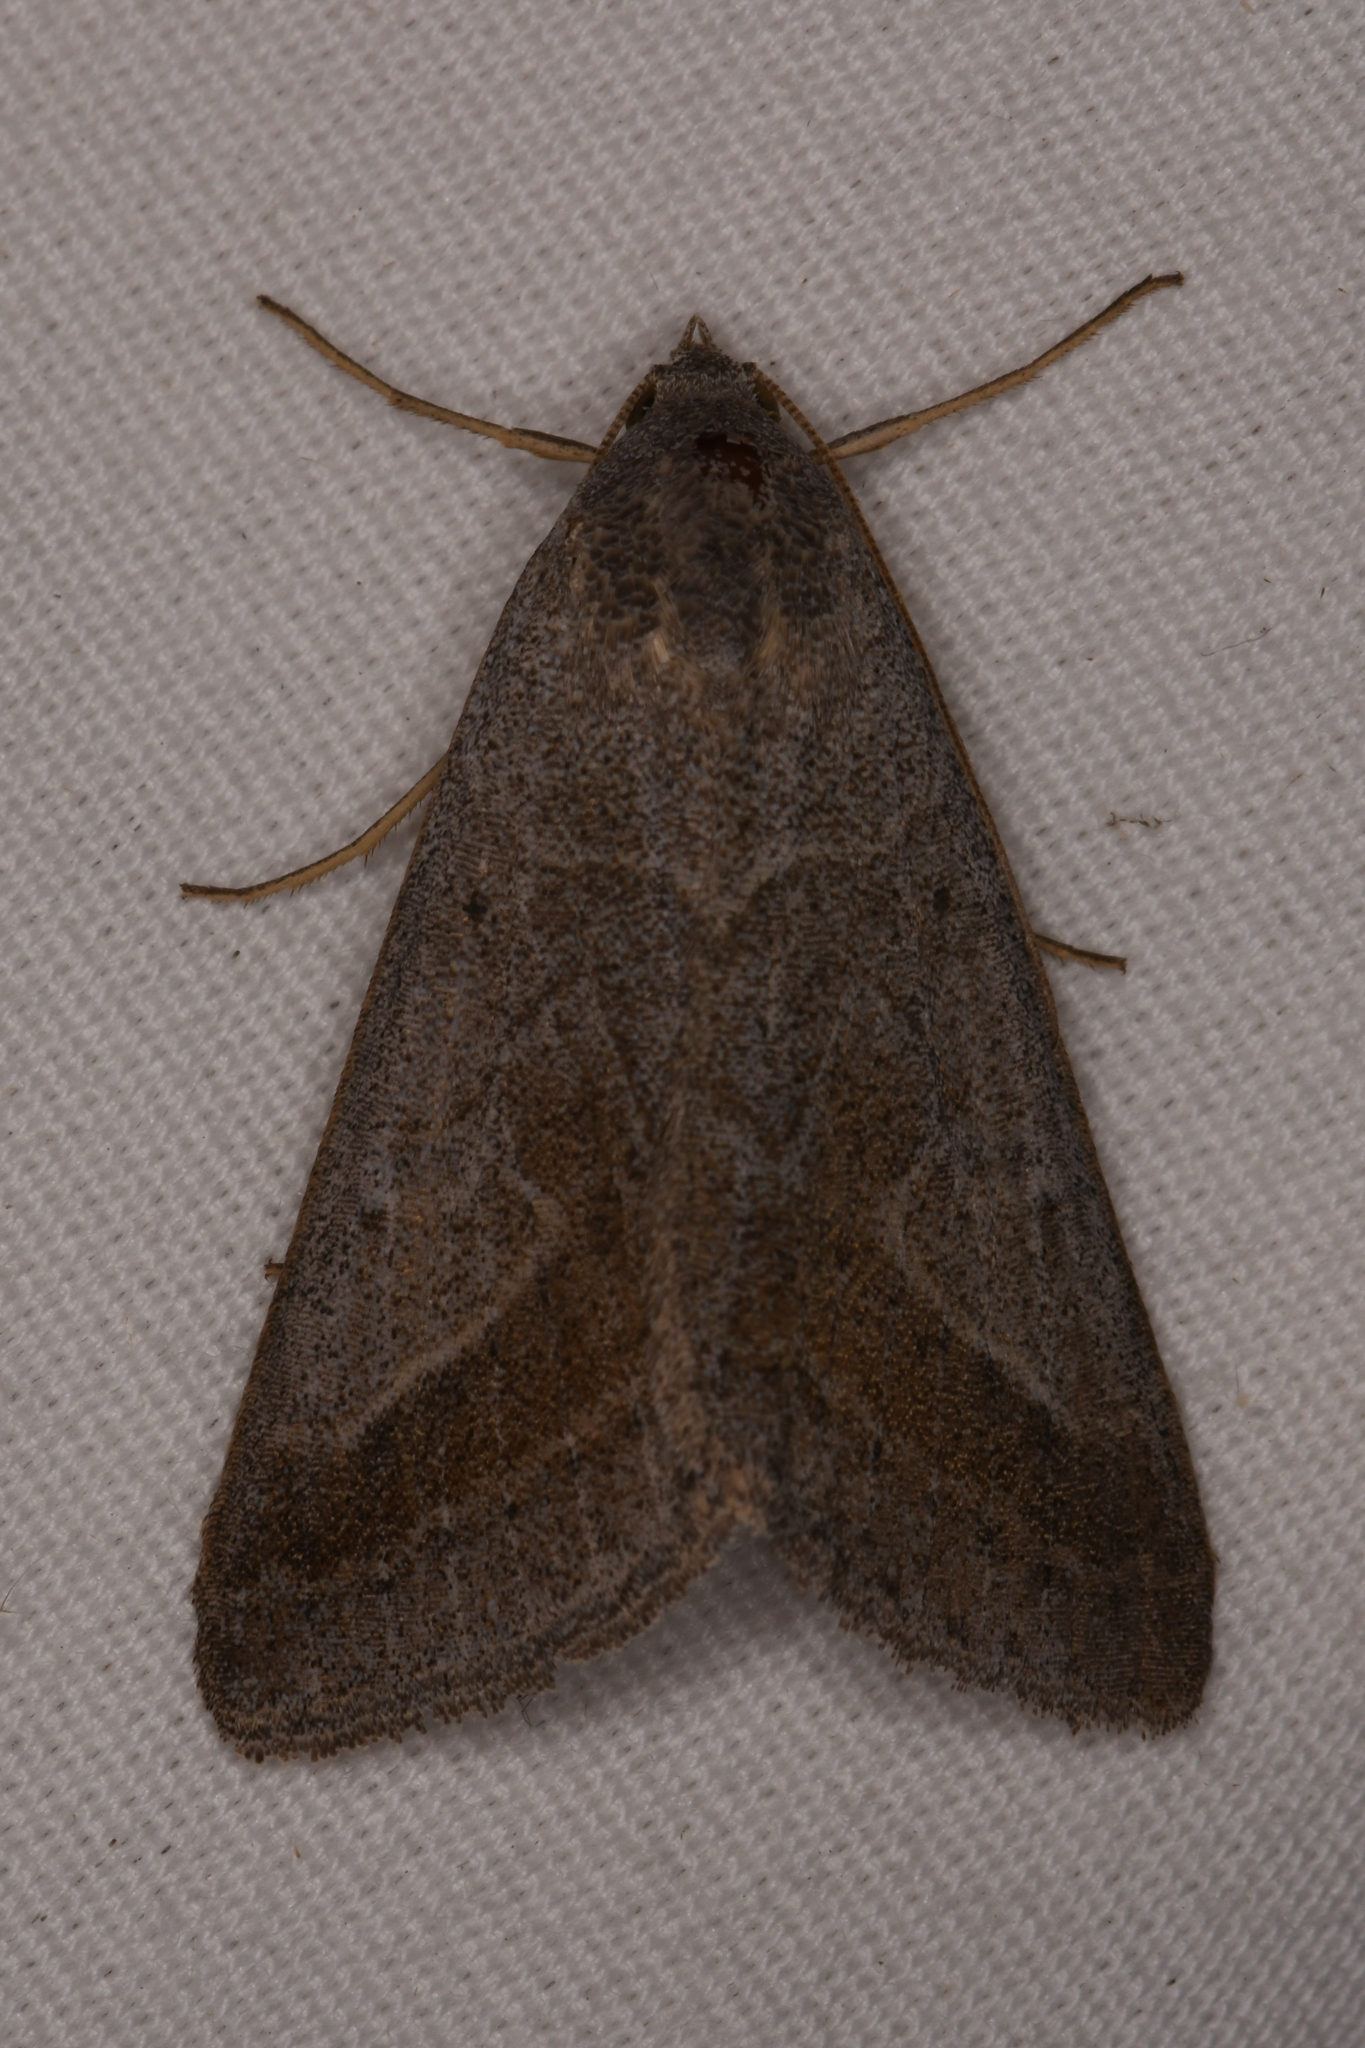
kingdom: Animalia
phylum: Arthropoda
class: Insecta
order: Lepidoptera
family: Erebidae
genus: Caenurgia
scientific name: Caenurgia togataria
